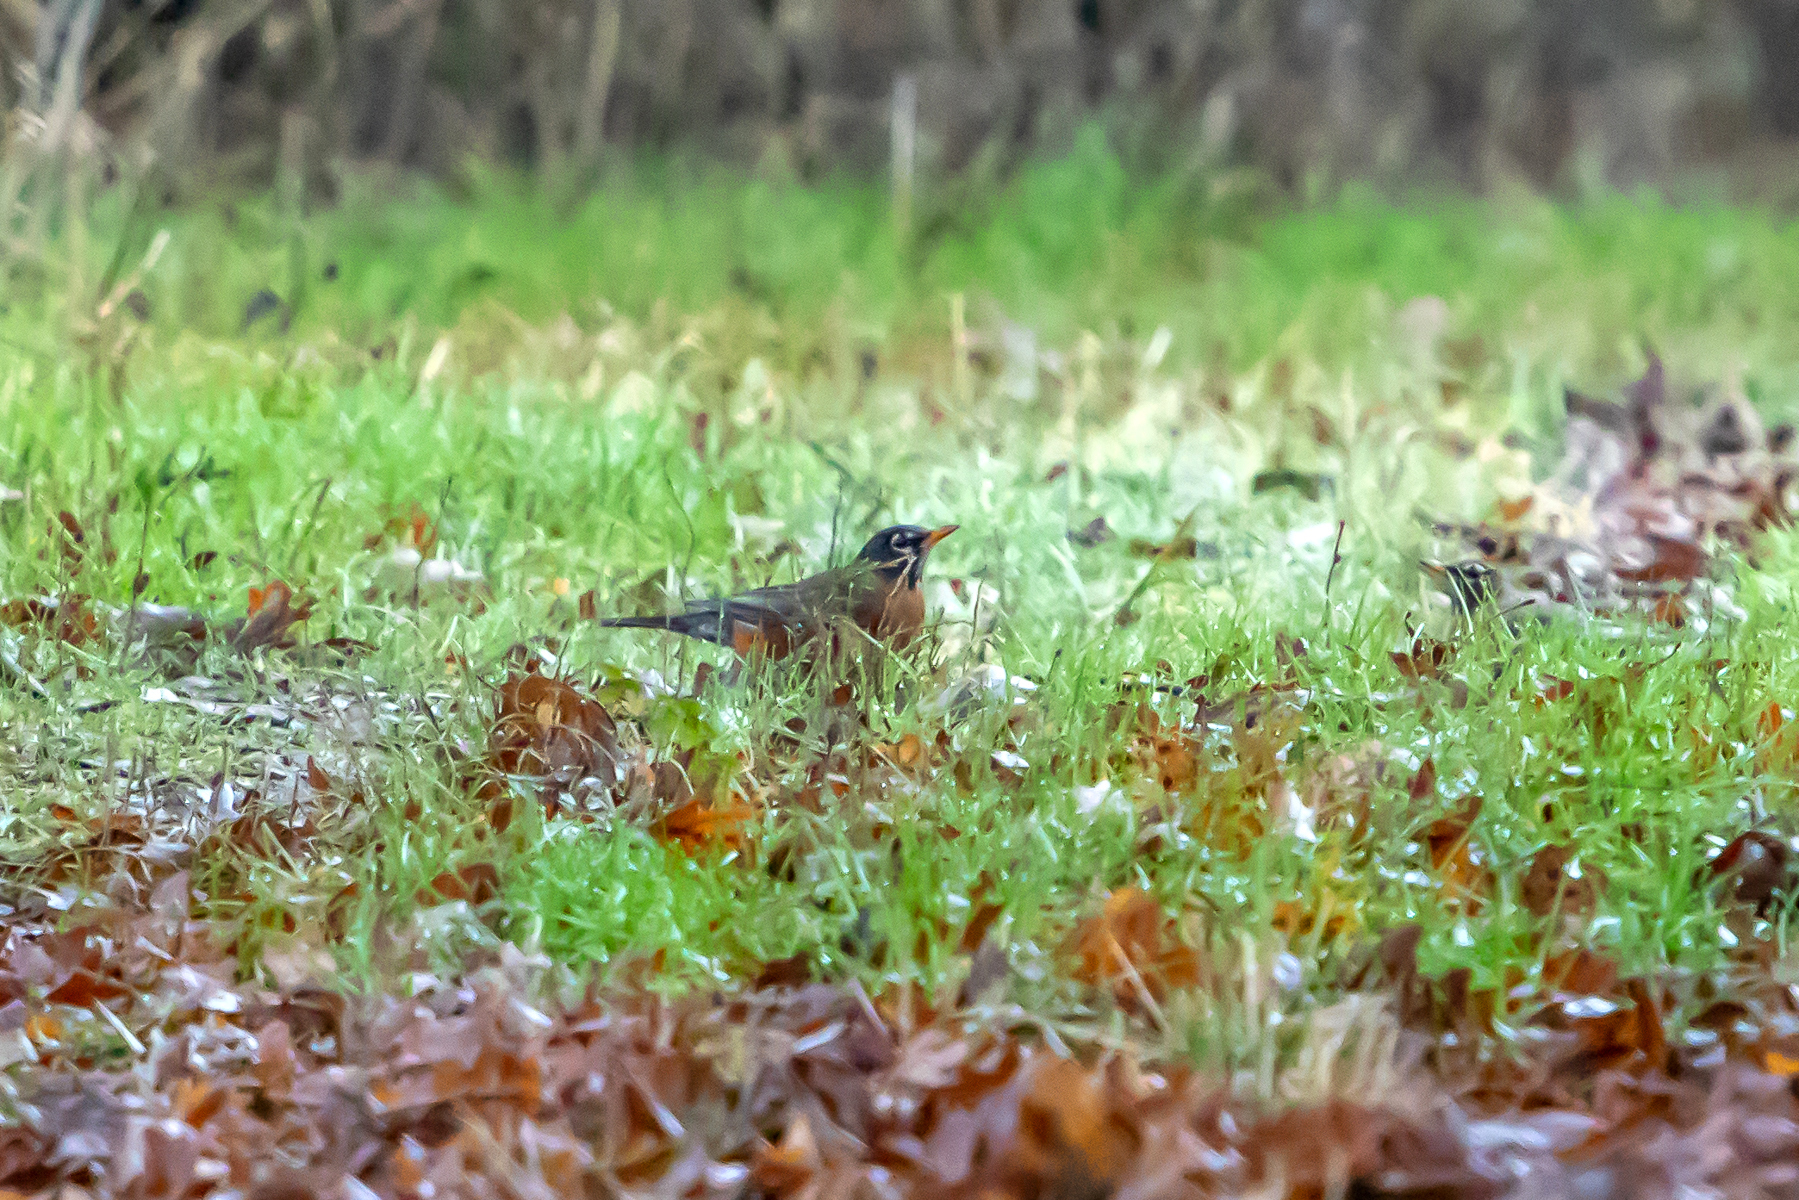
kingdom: Animalia
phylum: Chordata
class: Aves
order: Passeriformes
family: Turdidae
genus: Turdus
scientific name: Turdus migratorius
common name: American robin
